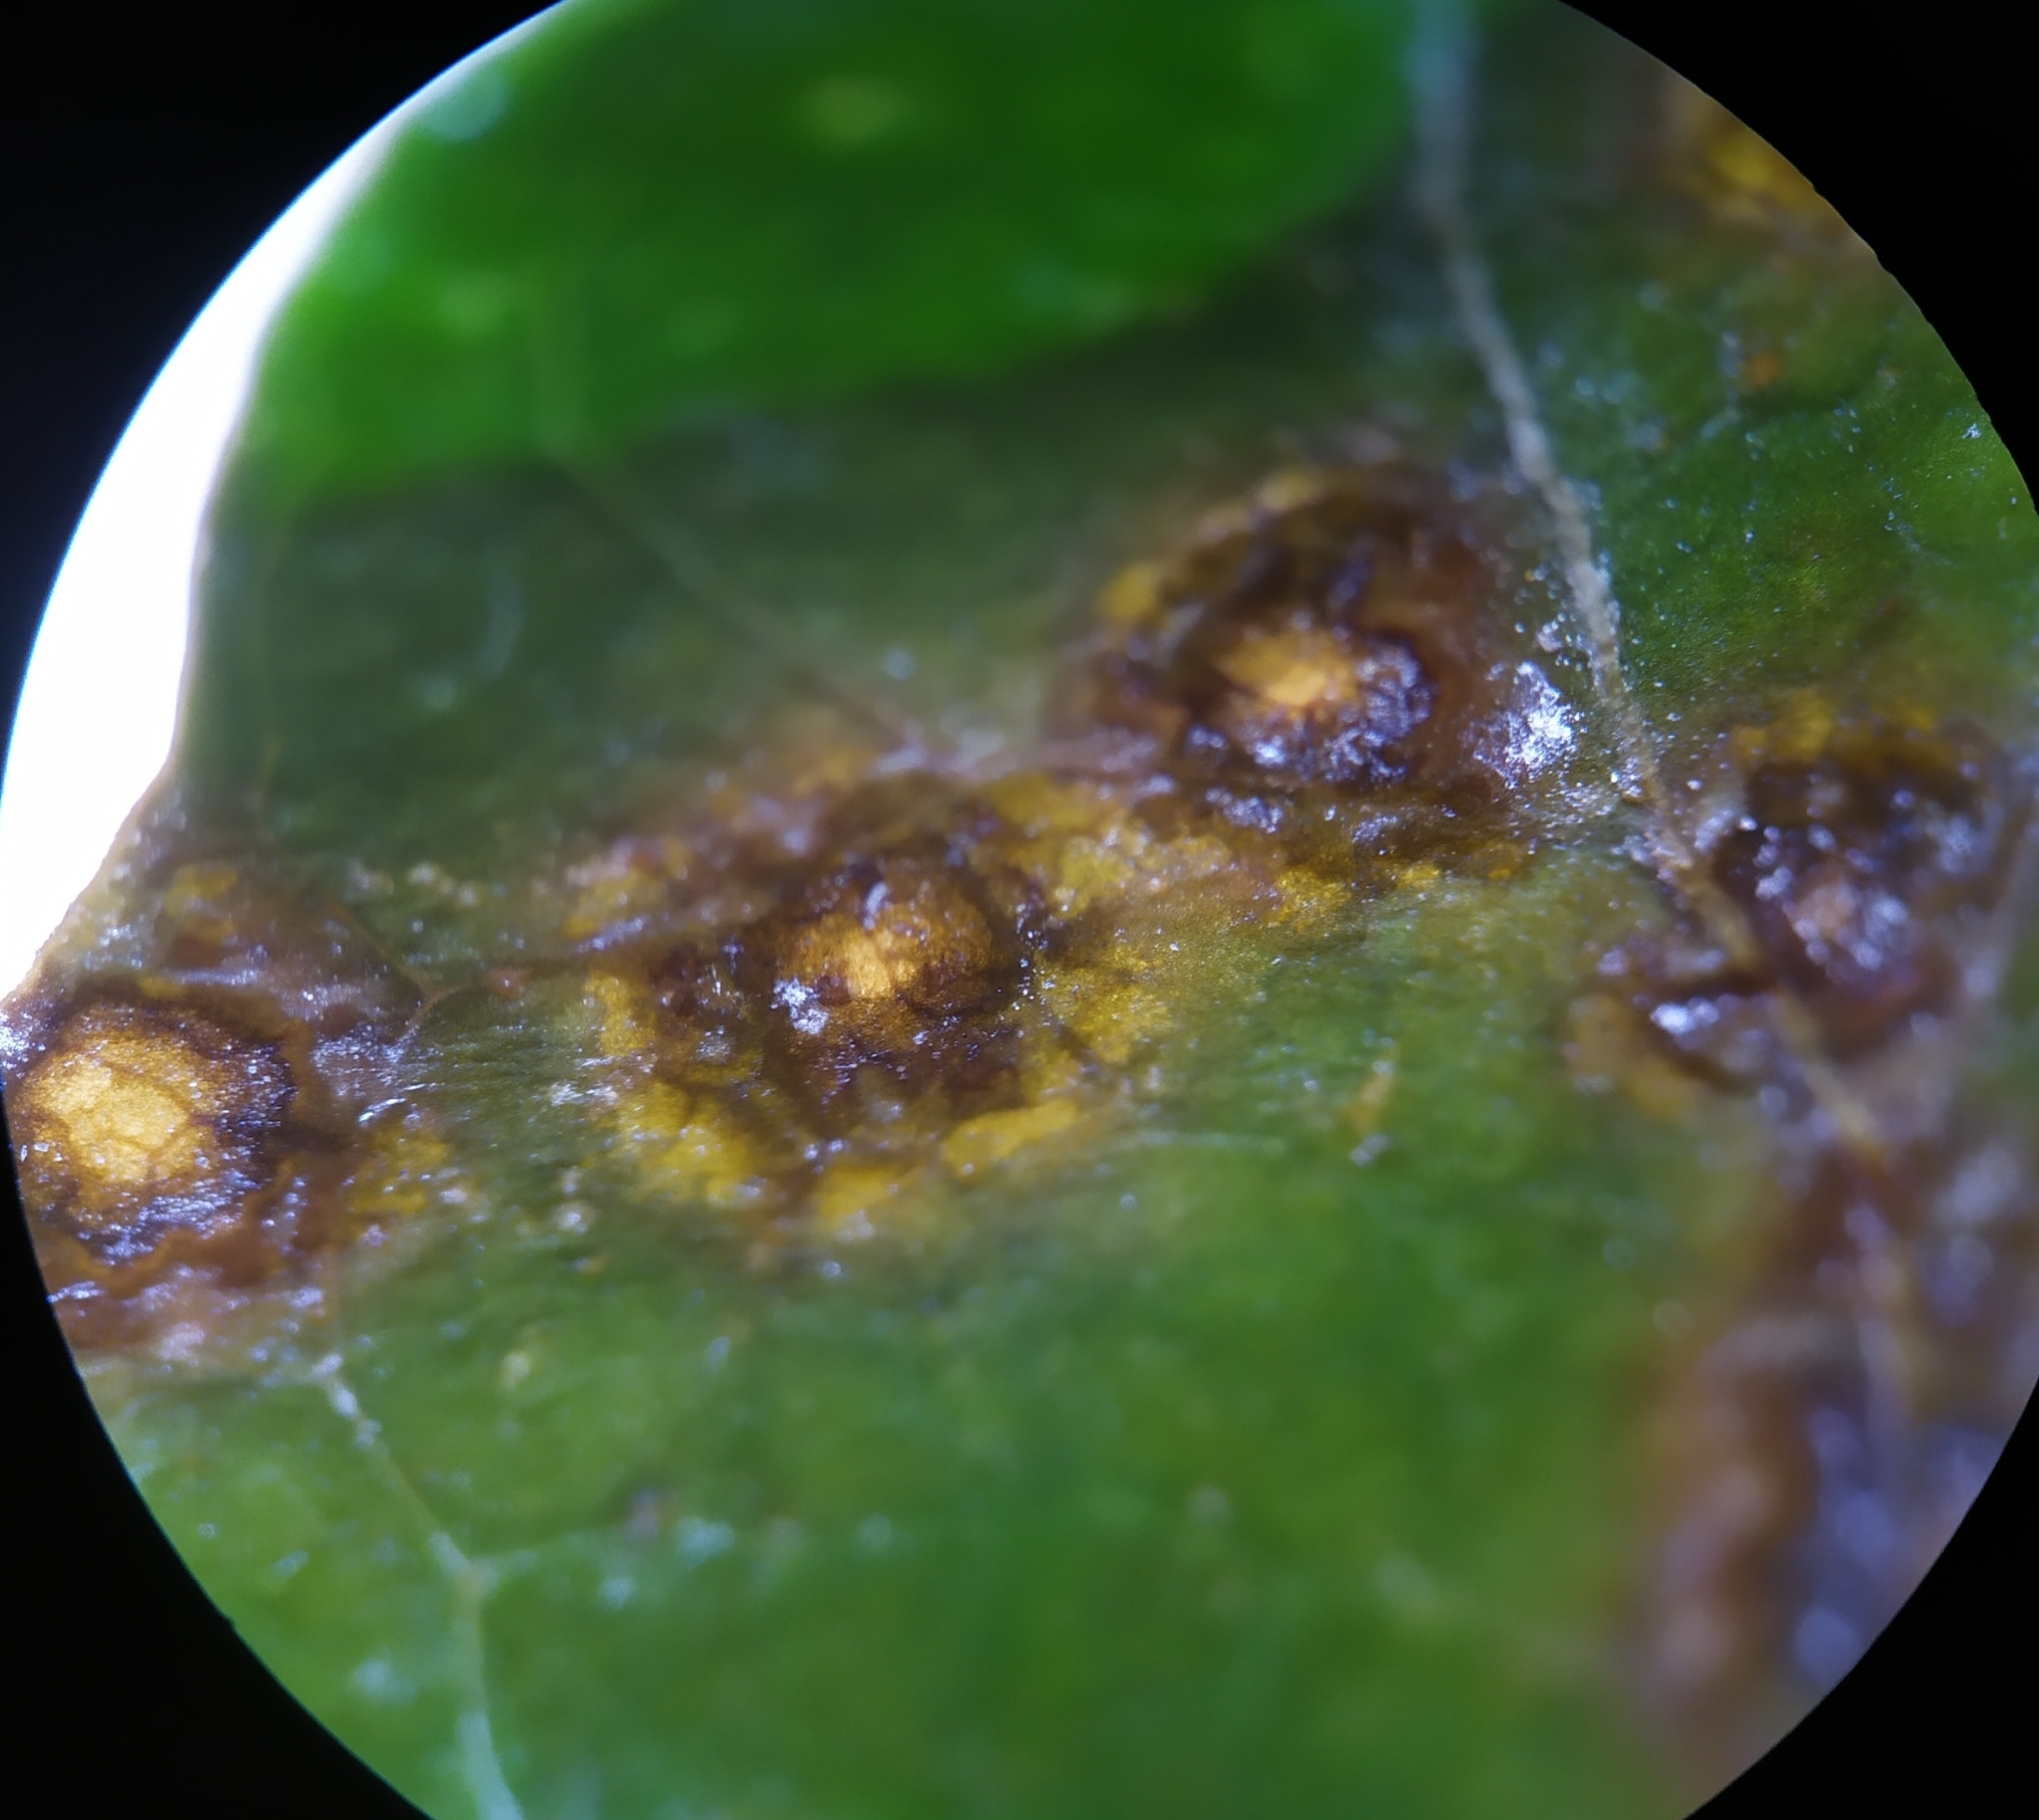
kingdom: Bacteria
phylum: Proteobacteria
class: Gammaproteobacteria
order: Xanthomonadales
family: Xanthomonadaceae
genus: Xanthomonas
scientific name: Xanthomonas campestris
